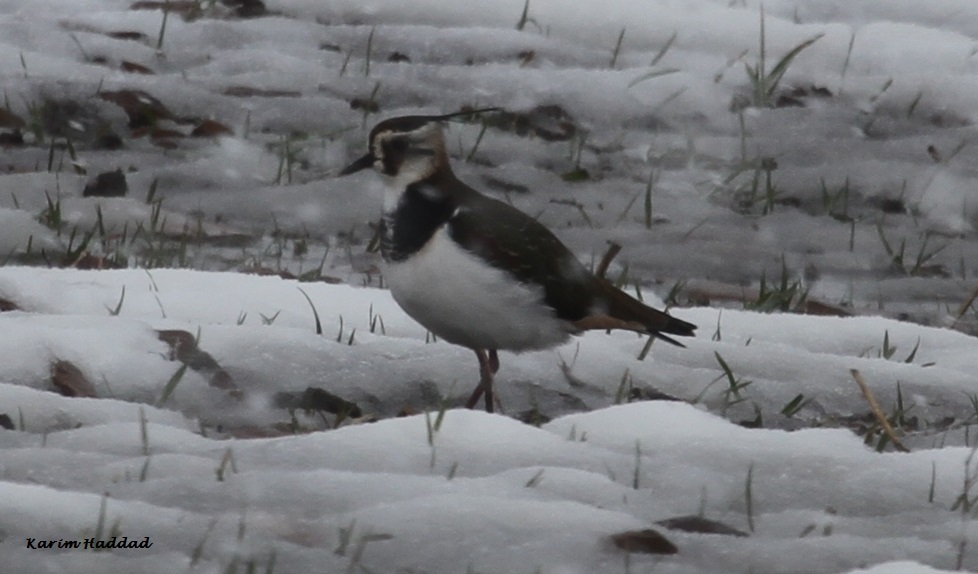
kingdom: Animalia
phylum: Chordata
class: Aves
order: Charadriiformes
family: Charadriidae
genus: Vanellus
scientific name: Vanellus vanellus
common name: Northern lapwing
